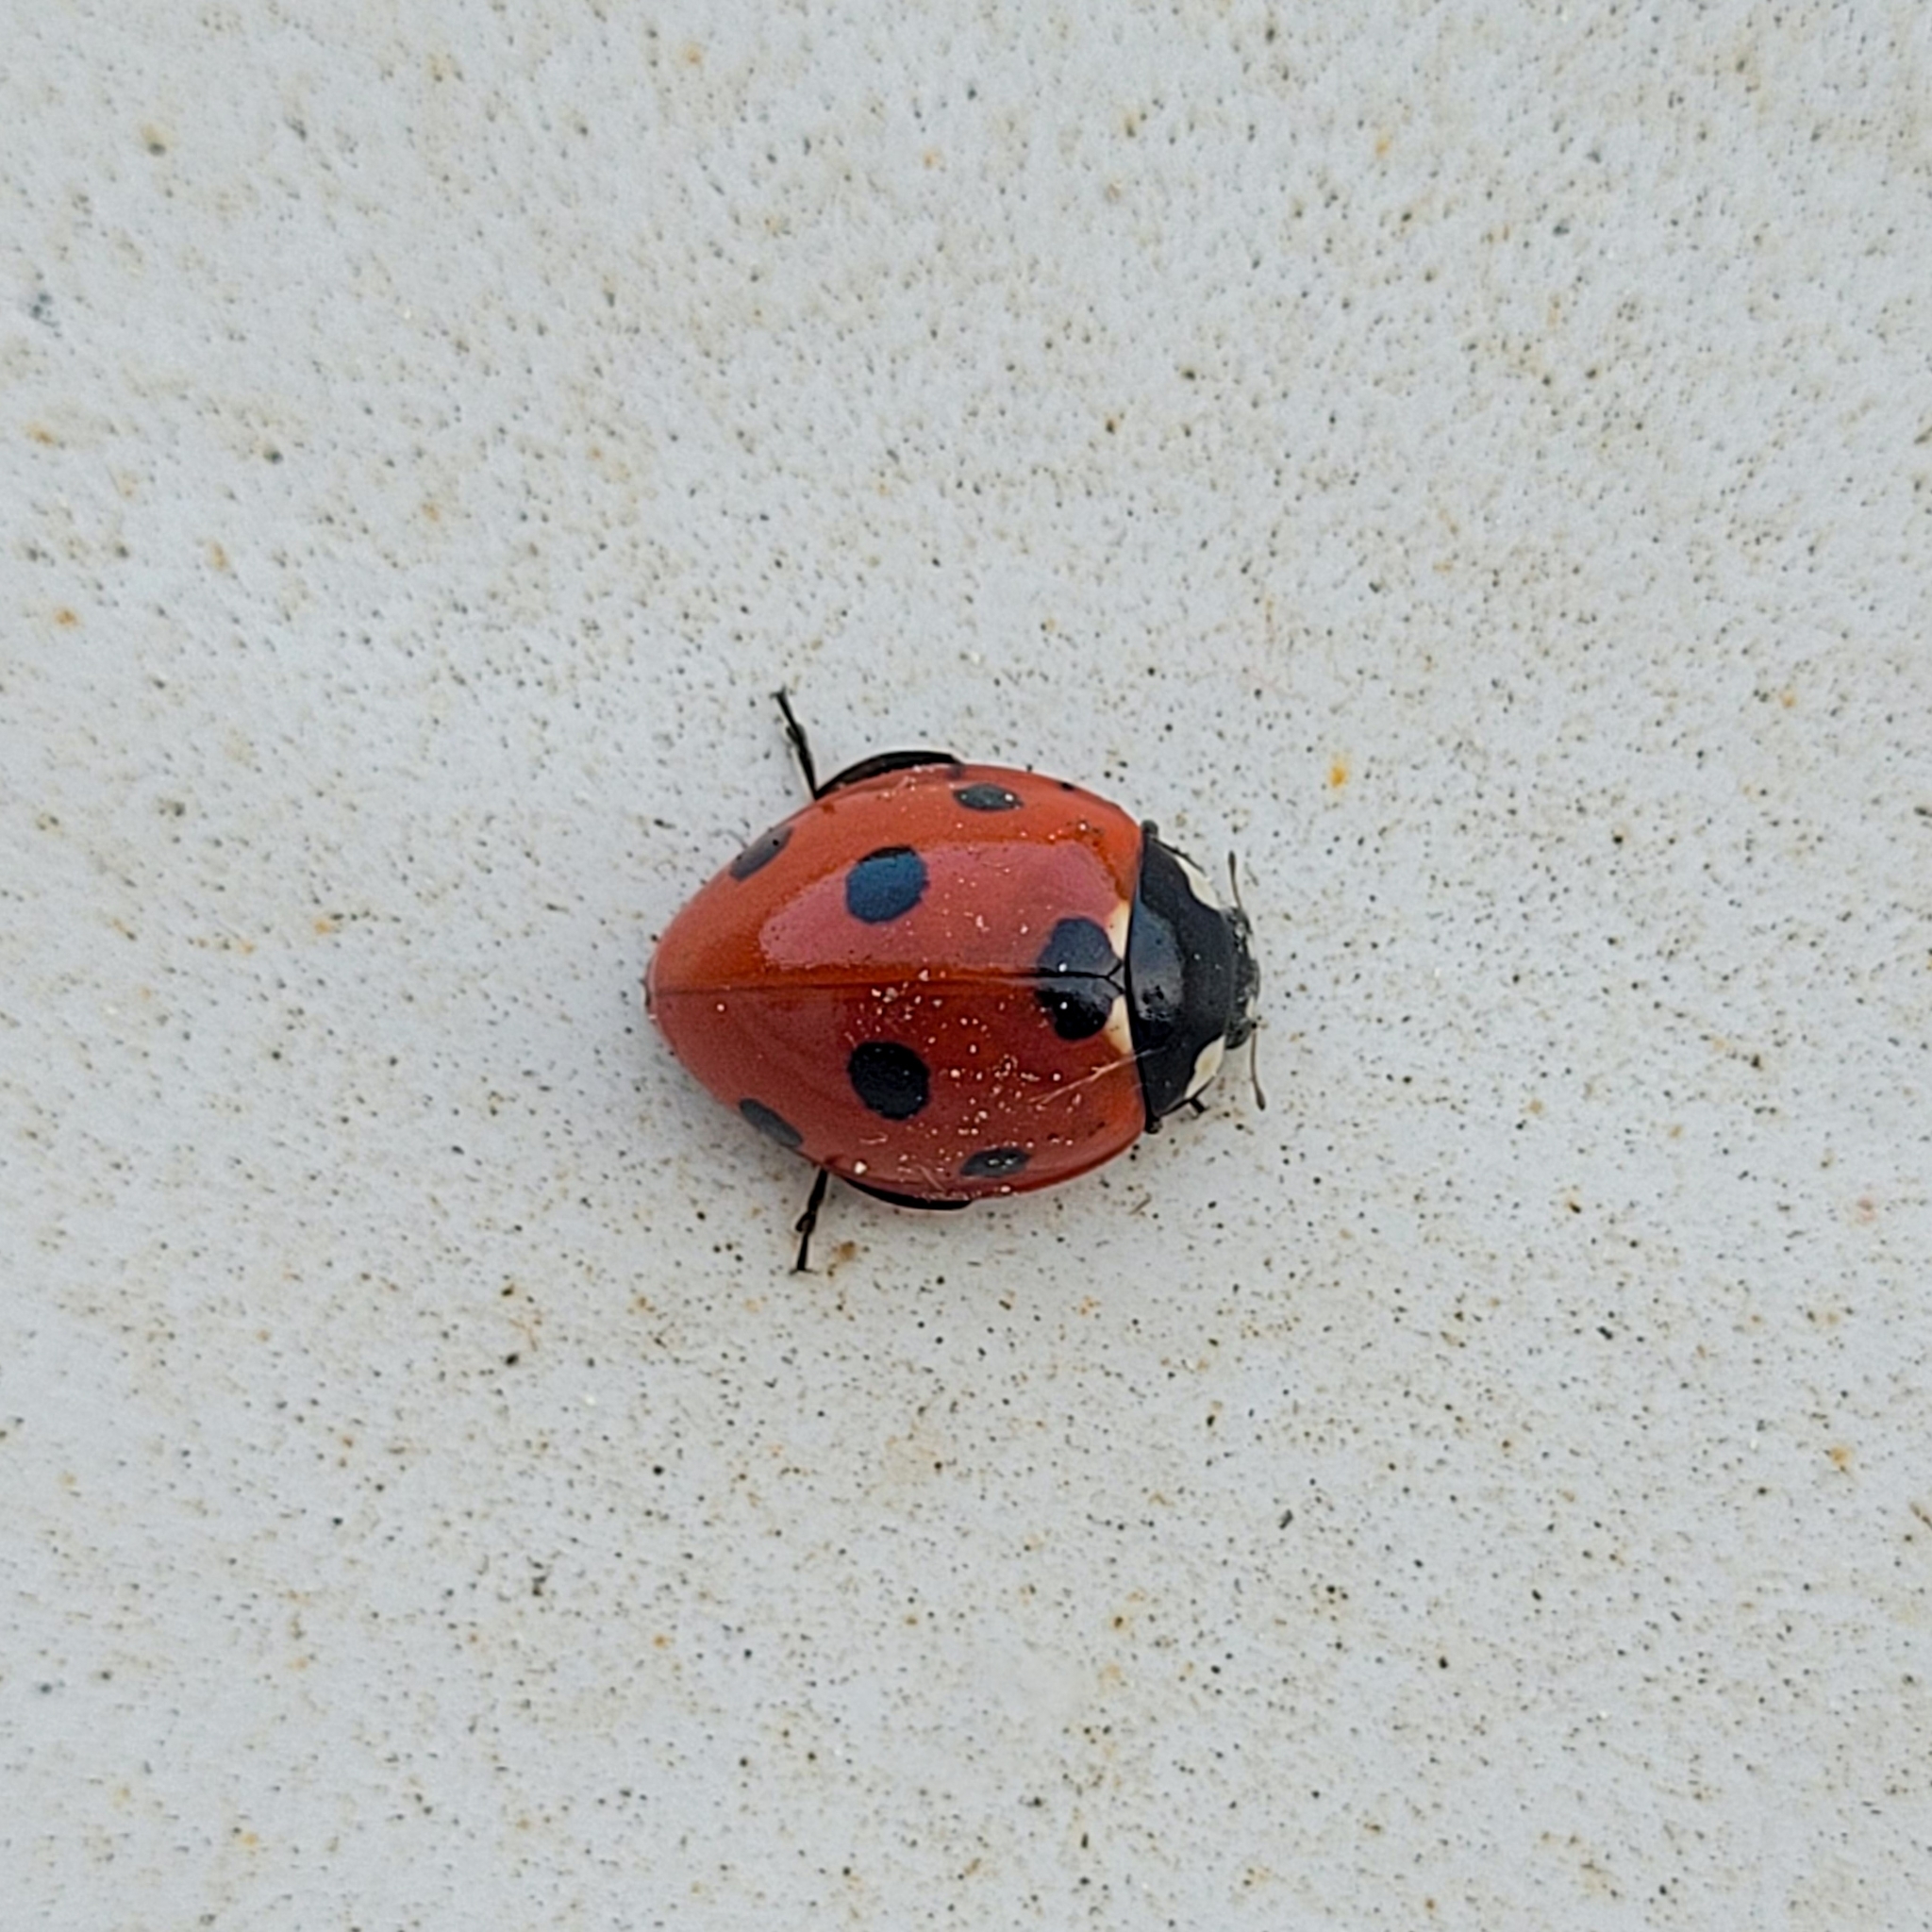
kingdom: Animalia
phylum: Arthropoda
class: Insecta
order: Coleoptera
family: Coccinellidae
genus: Coccinella
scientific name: Coccinella septempunctata
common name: Sevenspotted lady beetle
